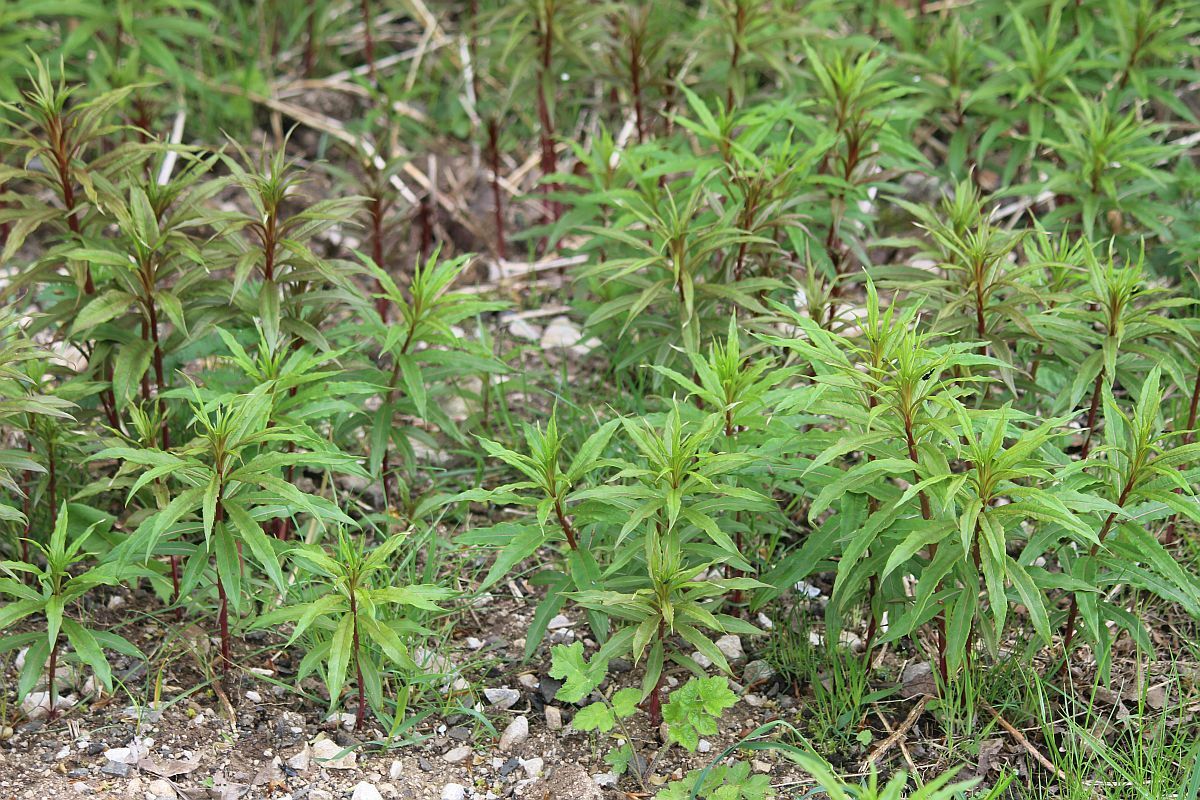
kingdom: Plantae
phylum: Tracheophyta
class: Magnoliopsida
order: Myrtales
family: Onagraceae
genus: Chamaenerion
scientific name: Chamaenerion angustifolium
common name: Fireweed
